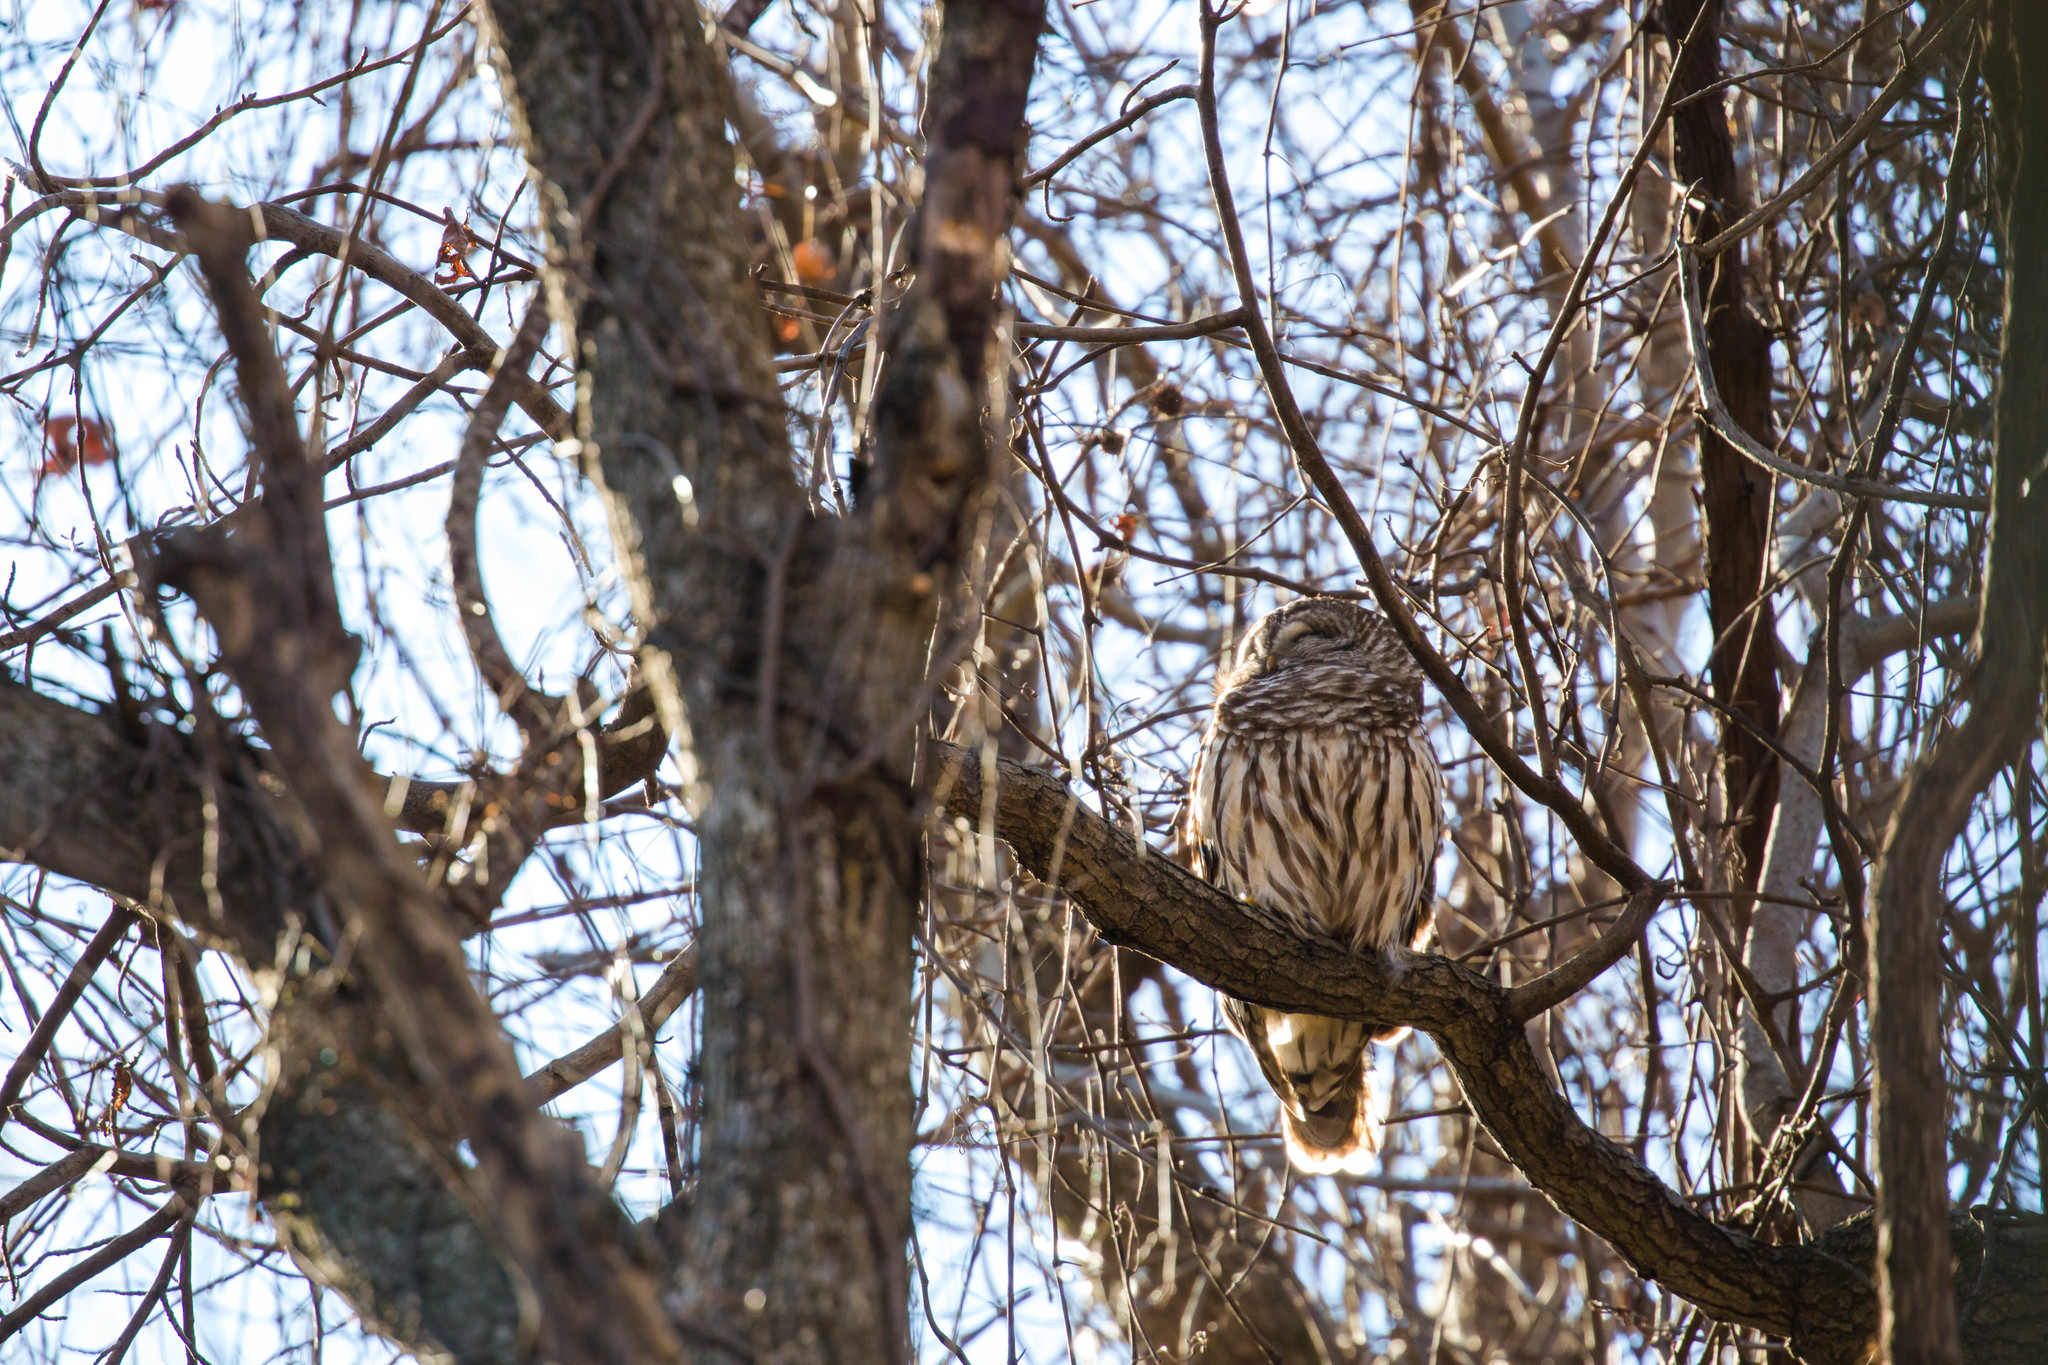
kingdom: Animalia
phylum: Chordata
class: Aves
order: Strigiformes
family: Strigidae
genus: Strix
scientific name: Strix varia
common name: Barred owl
